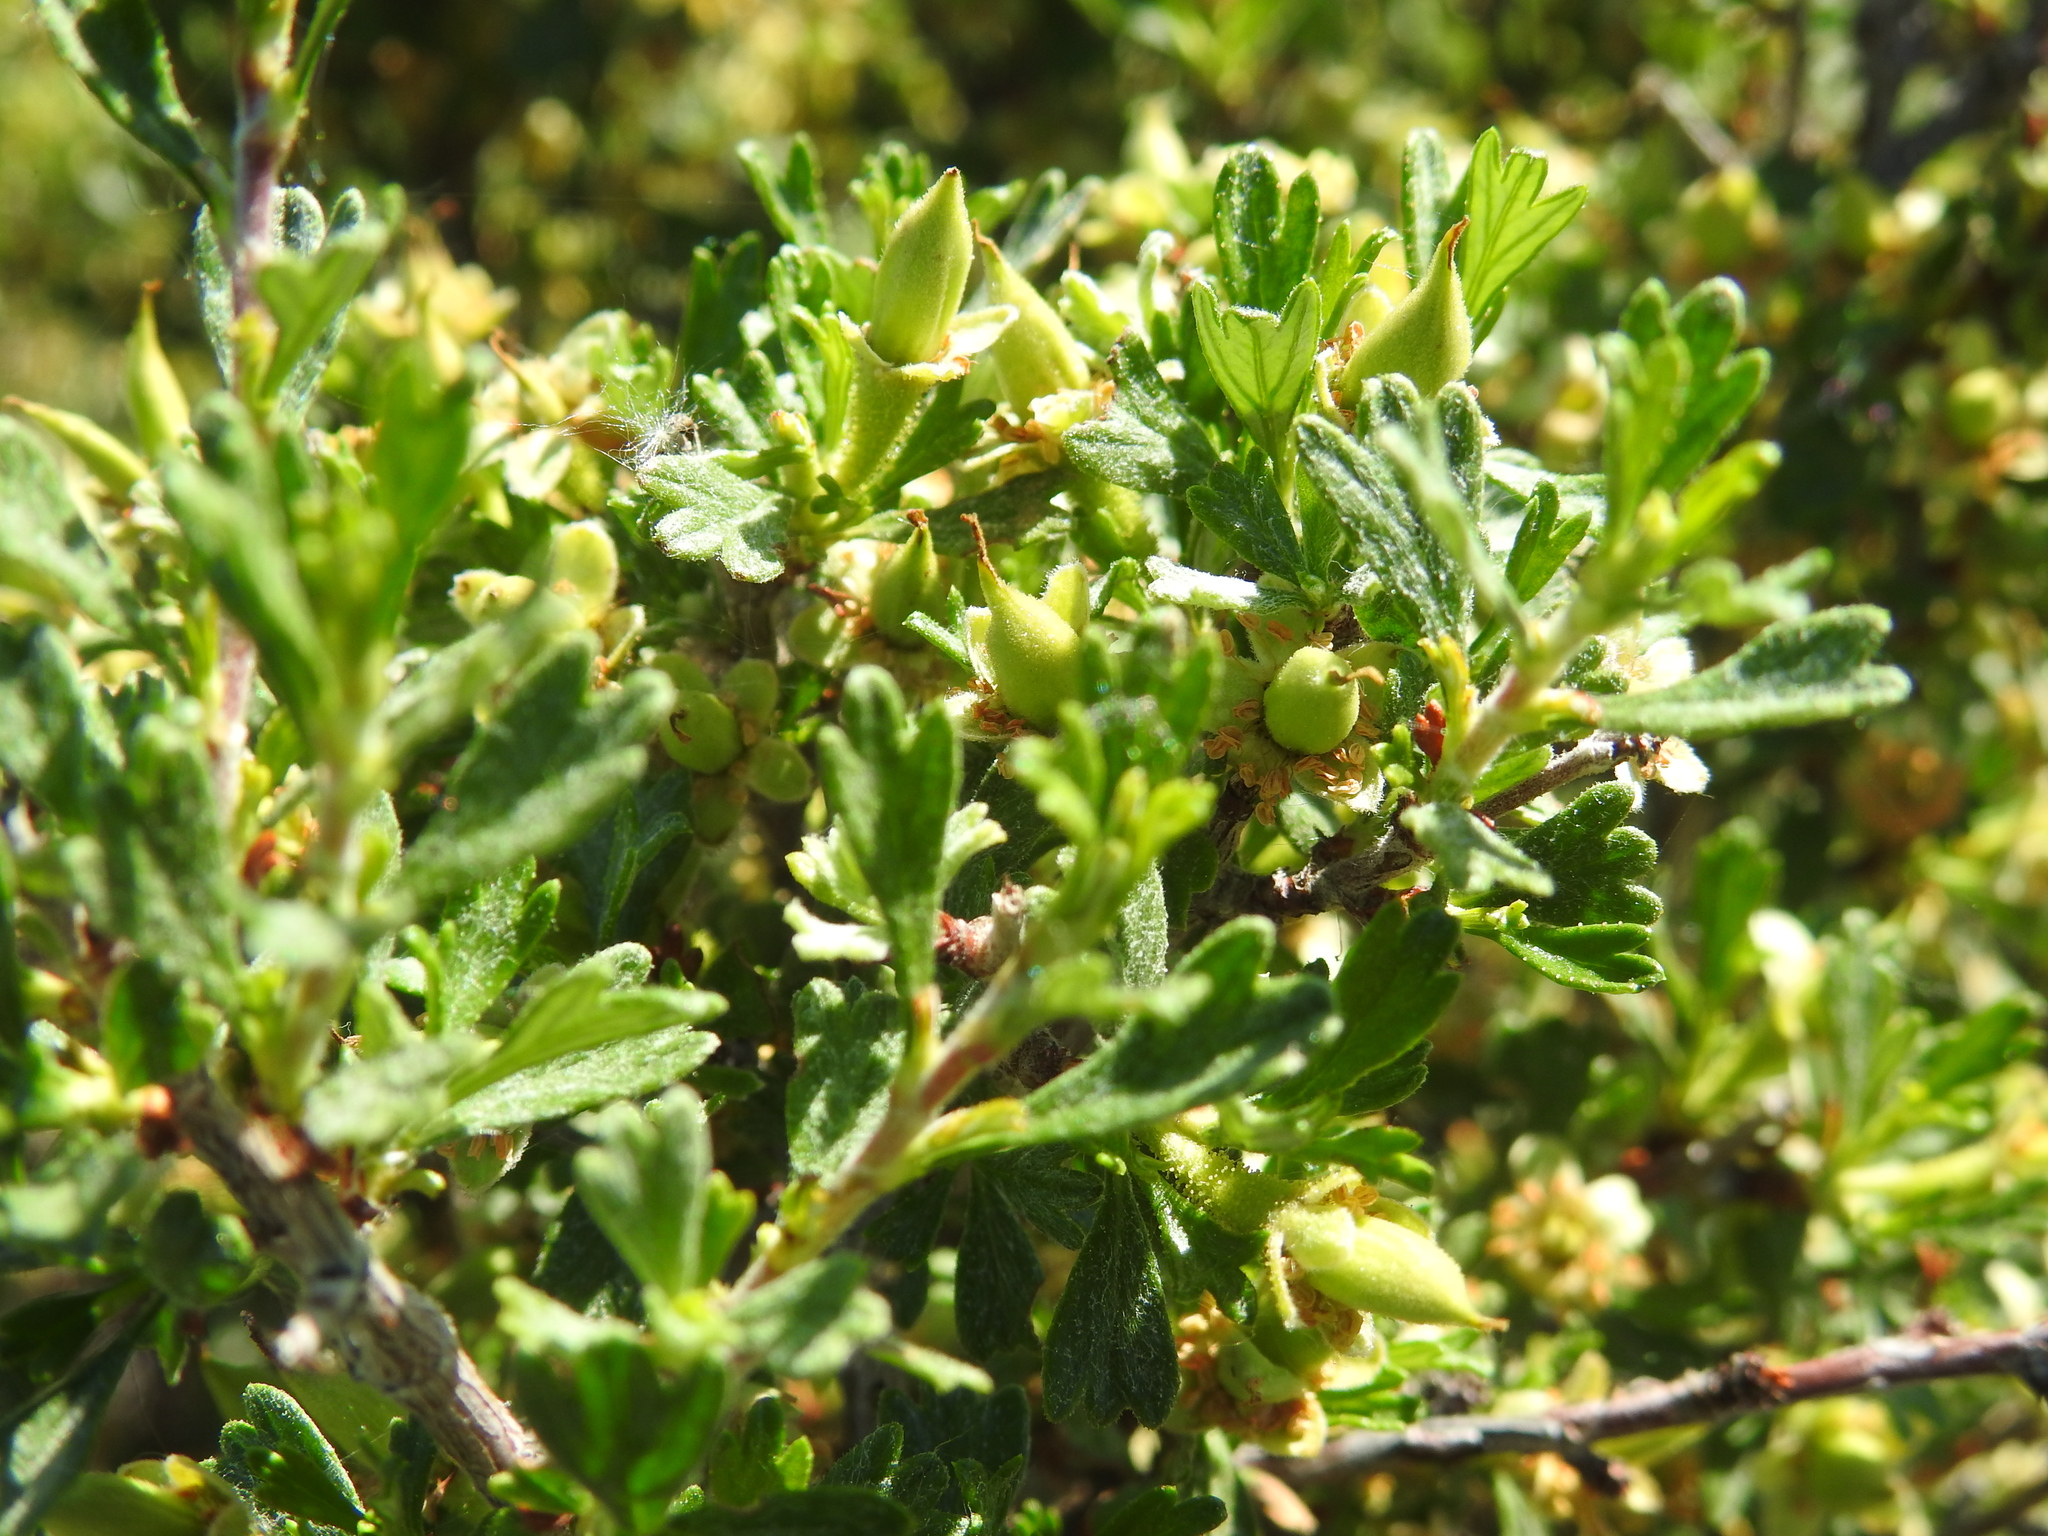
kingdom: Plantae
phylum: Tracheophyta
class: Magnoliopsida
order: Rosales
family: Rosaceae
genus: Purshia
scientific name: Purshia tridentata
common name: Antelope bitterbrush
